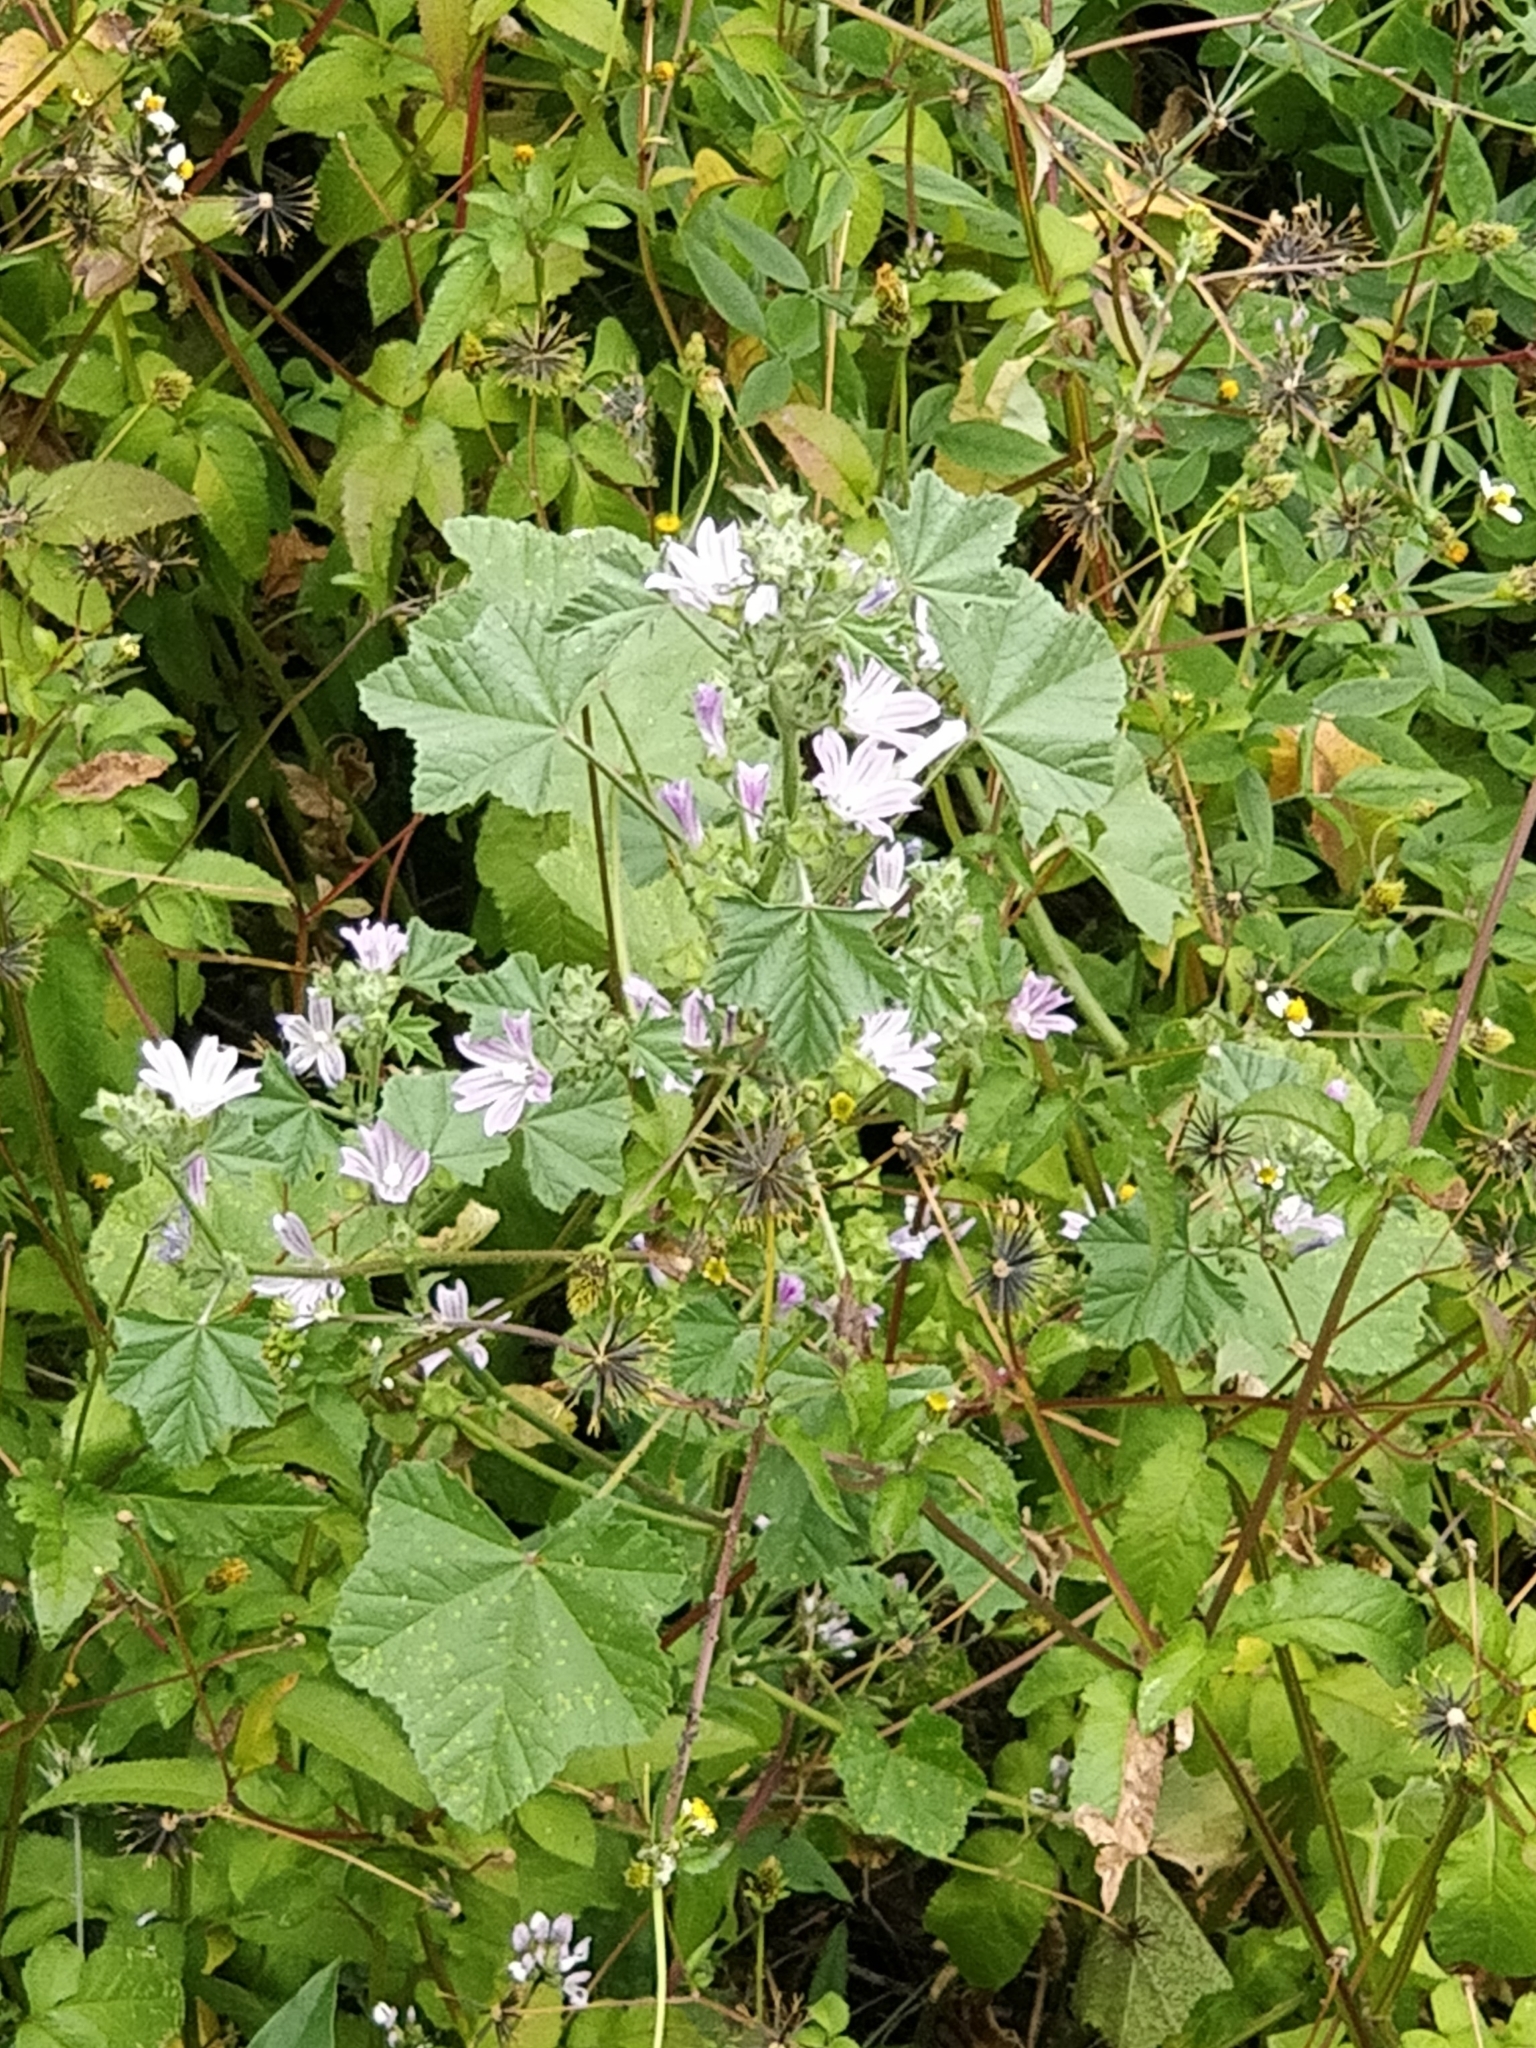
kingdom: Plantae
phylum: Tracheophyta
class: Magnoliopsida
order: Malvales
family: Malvaceae
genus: Malva
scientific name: Malva multiflora
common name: Cheeseweed
